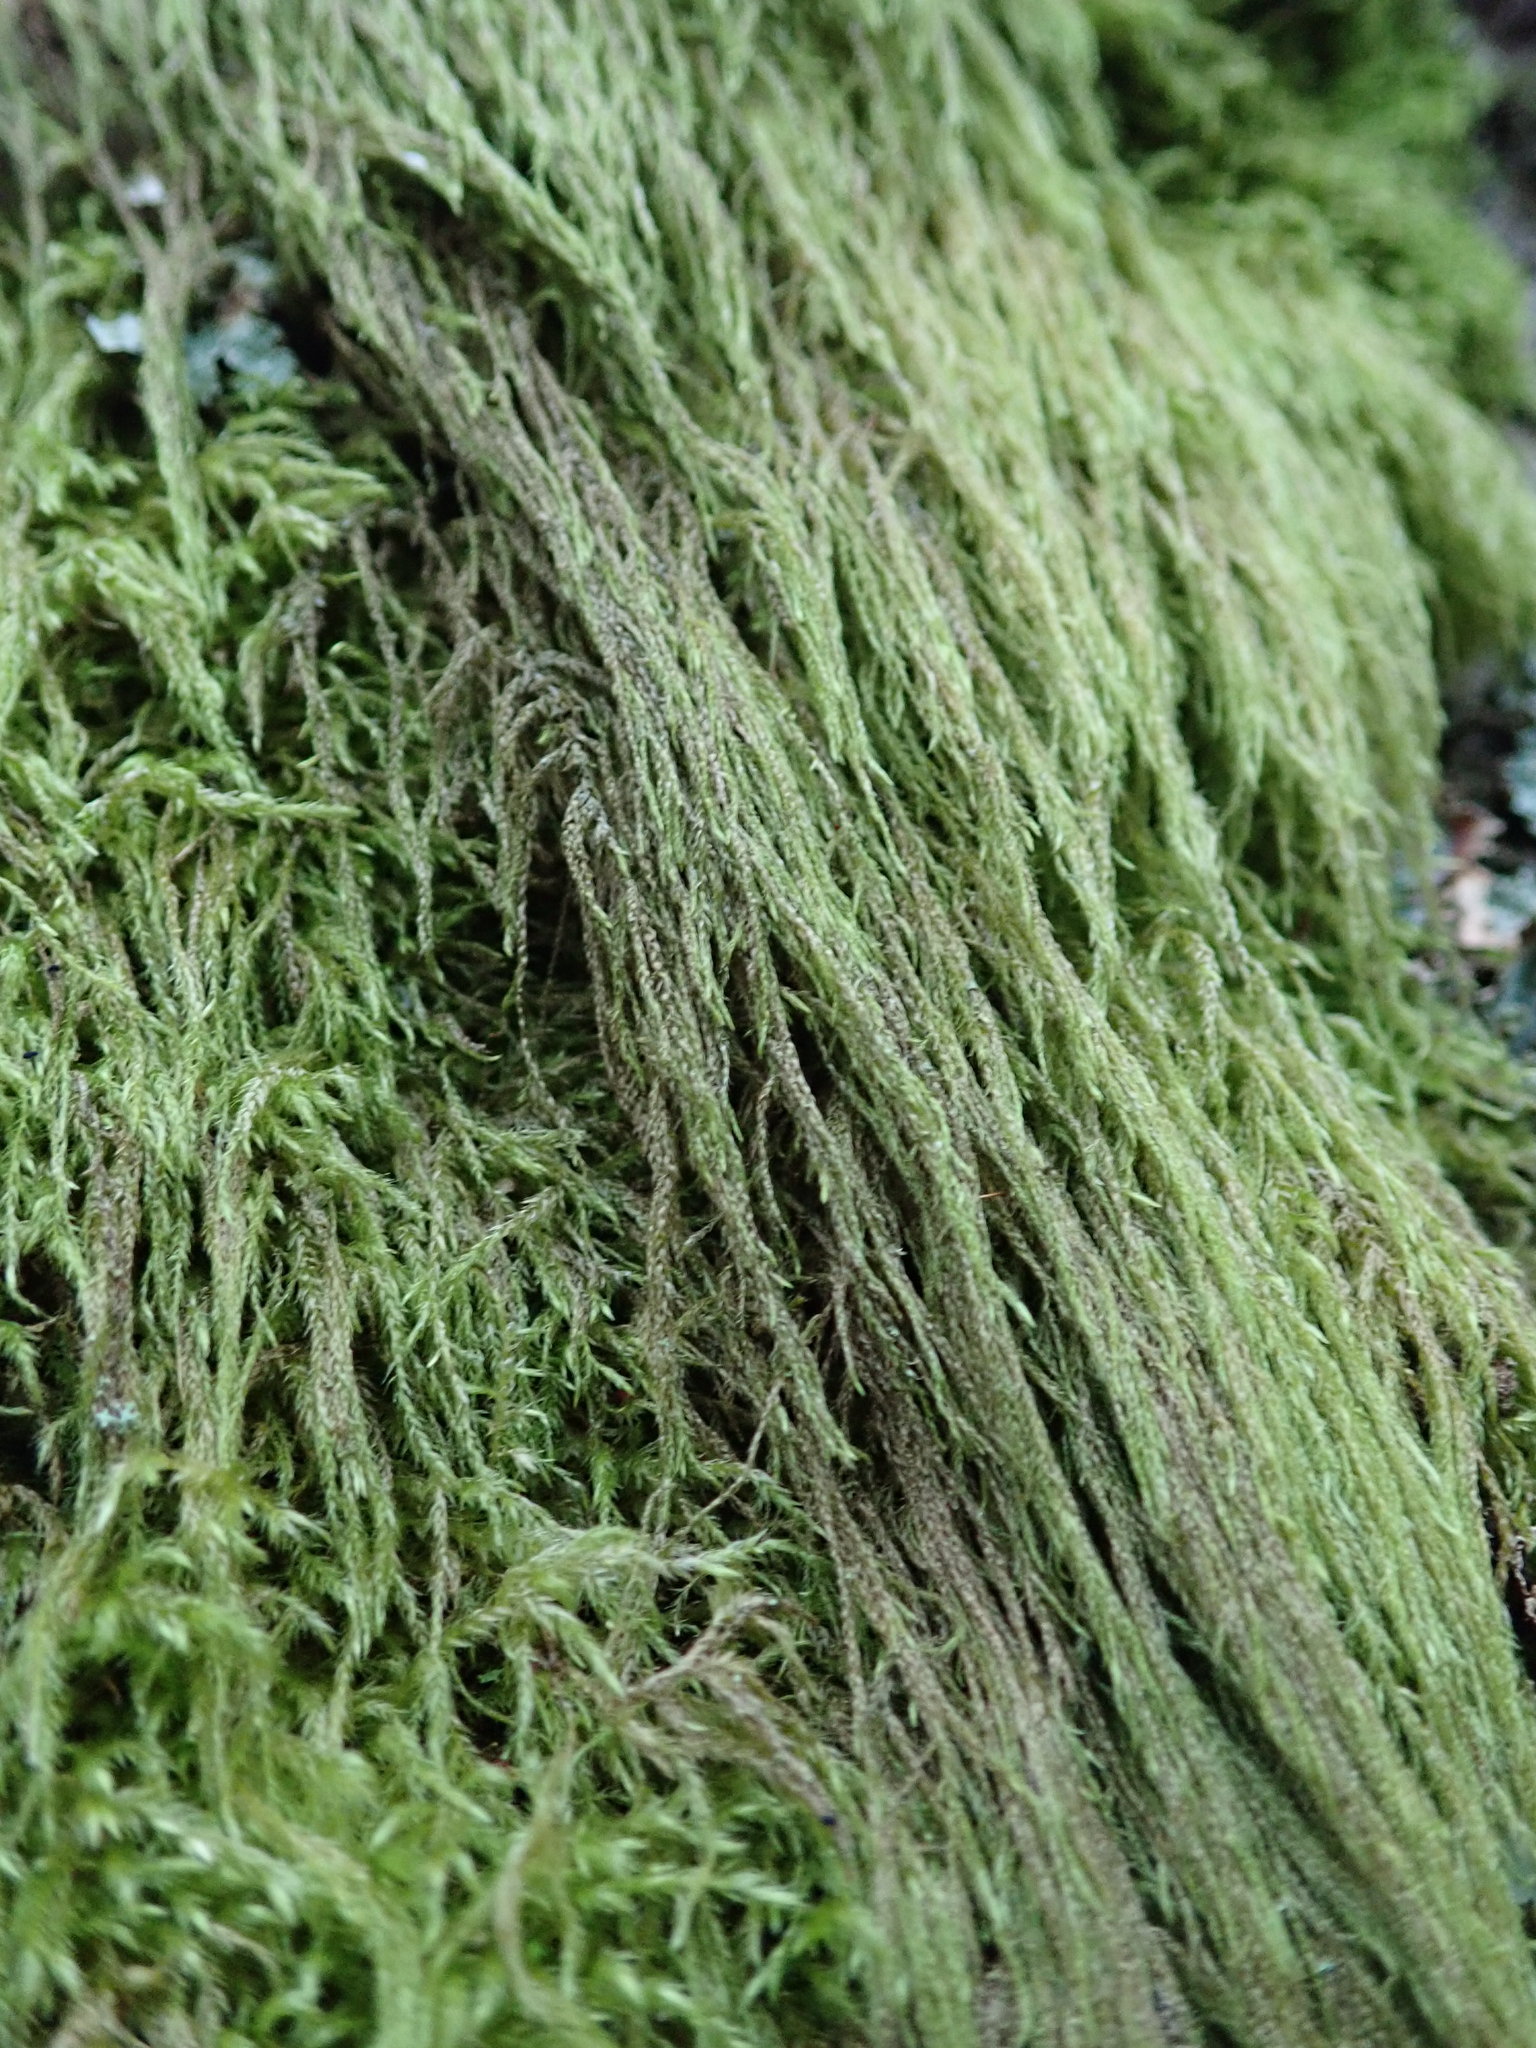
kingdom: Plantae
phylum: Bryophyta
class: Bryopsida
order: Hypnales
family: Lembophyllaceae
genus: Pseudisothecium
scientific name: Pseudisothecium stoloniferum
